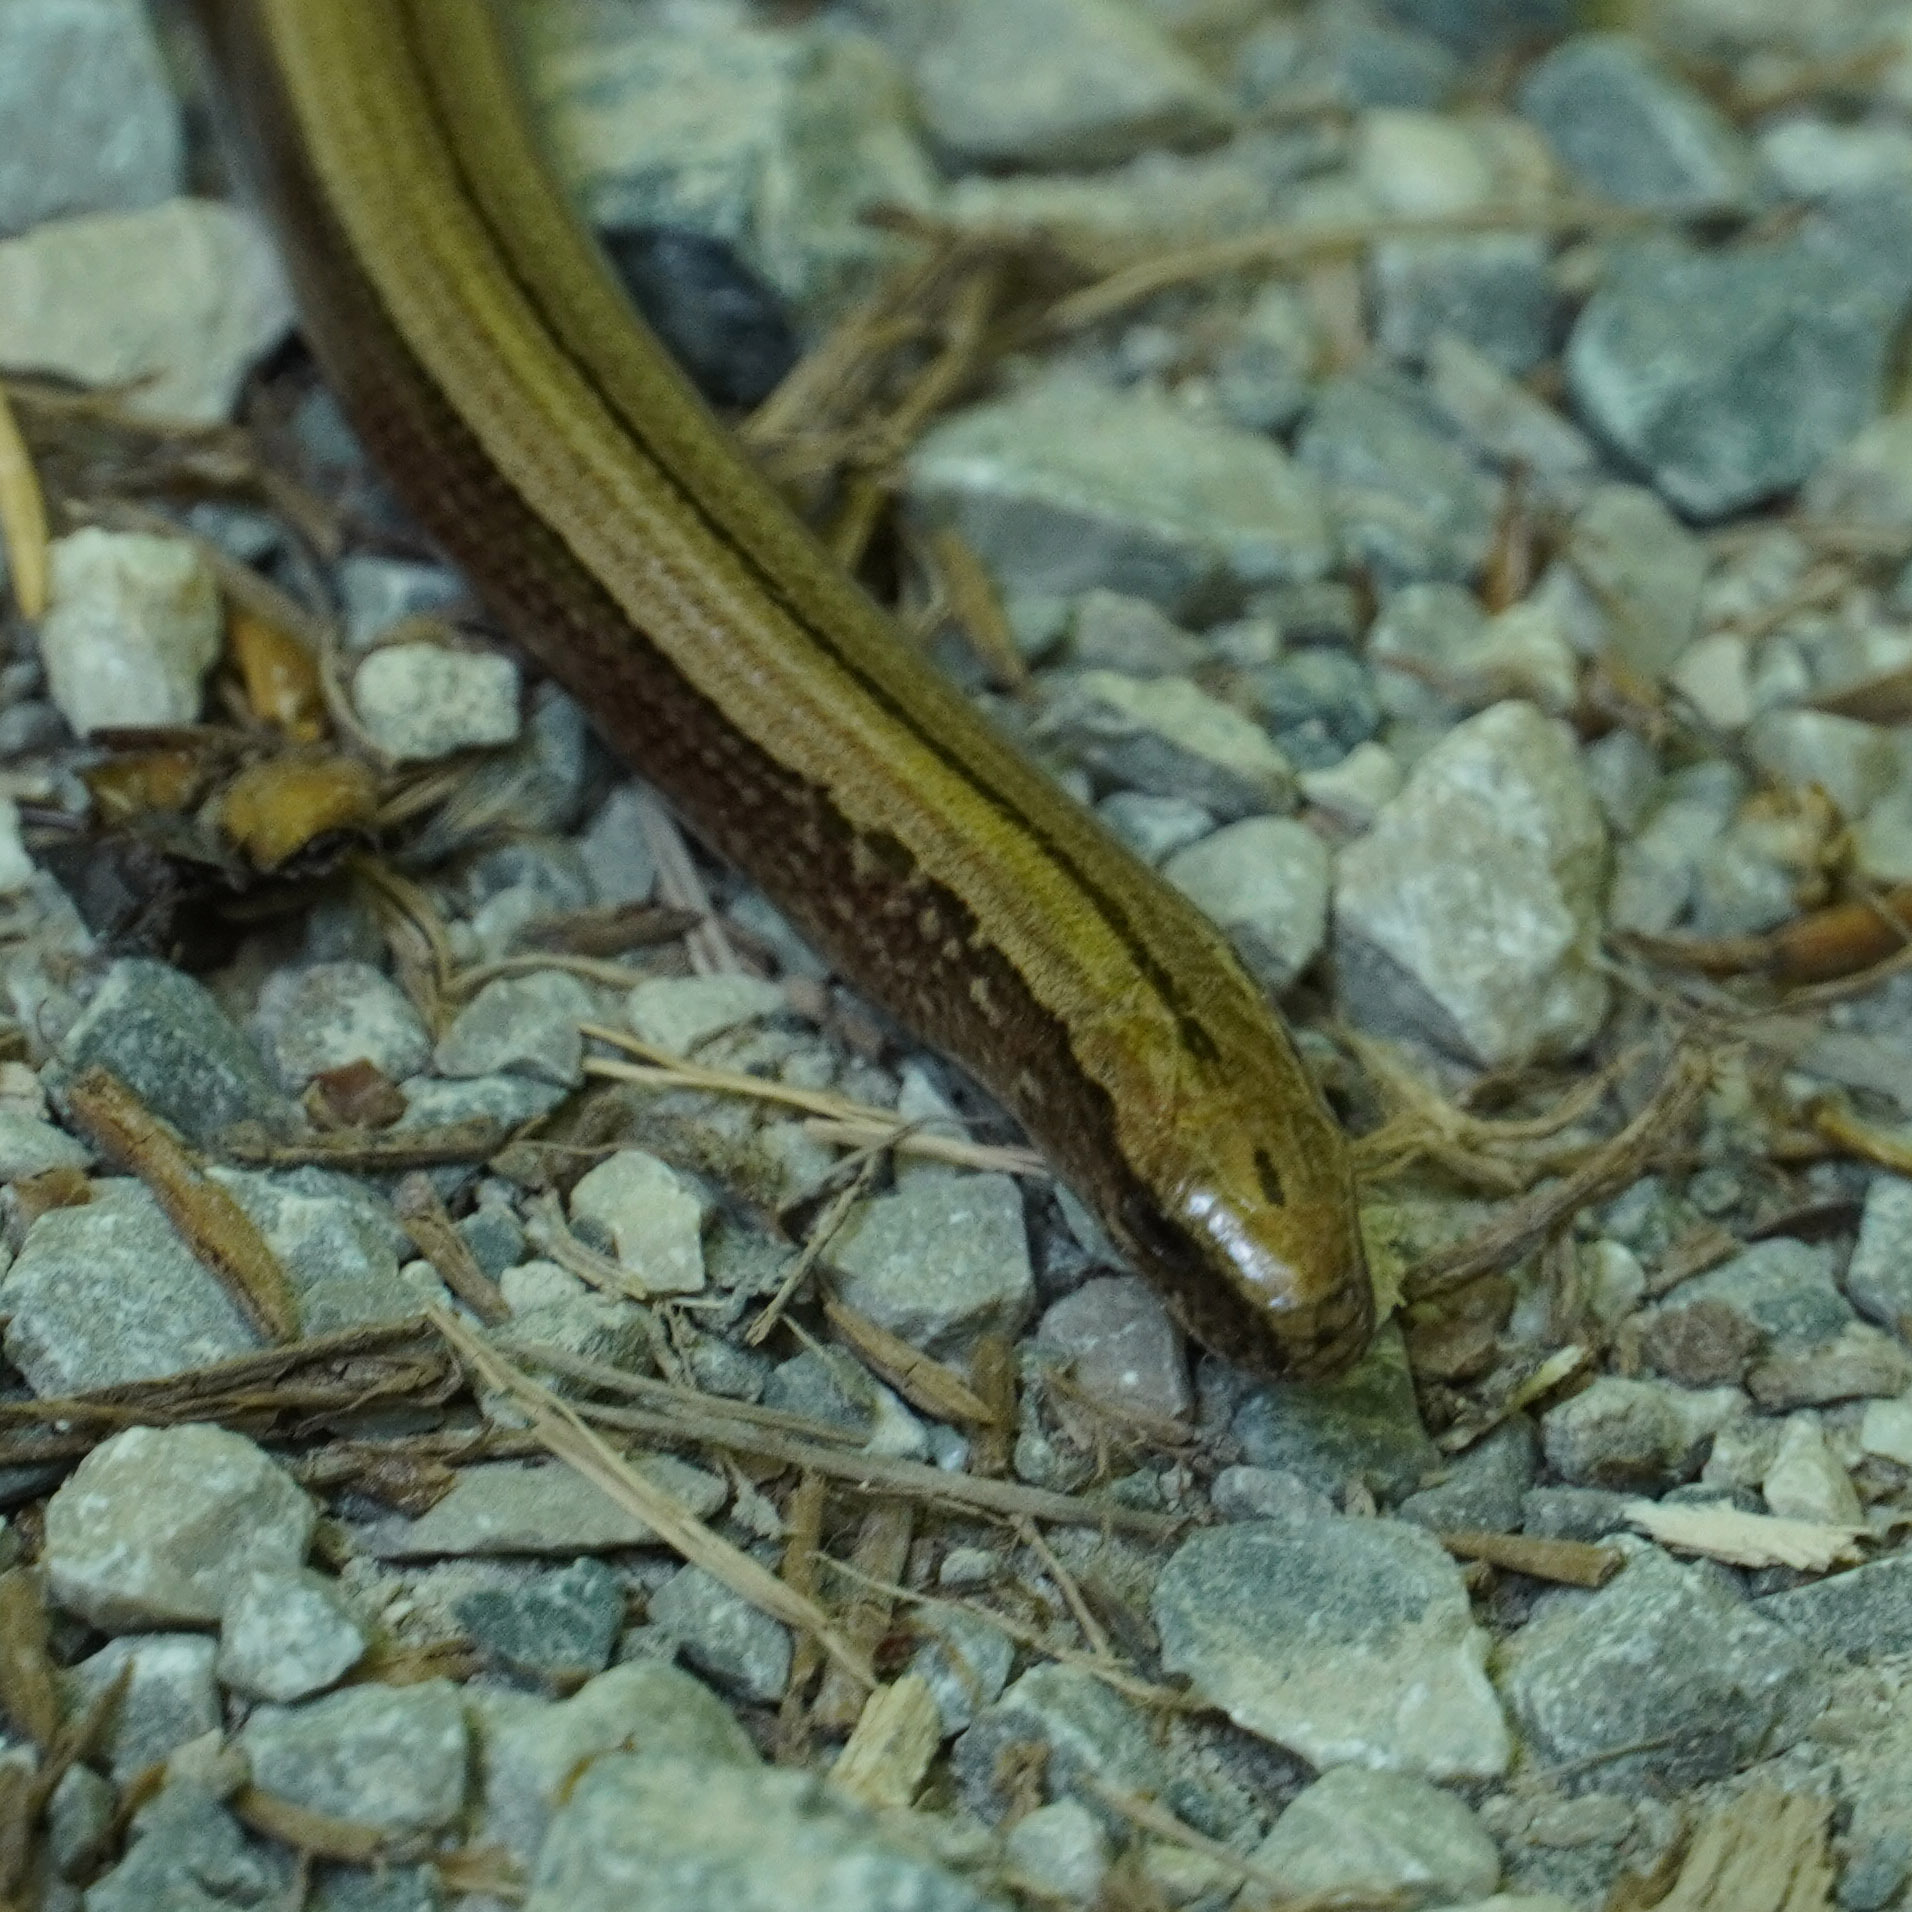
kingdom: Animalia
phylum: Chordata
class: Squamata
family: Anguidae
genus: Anguis
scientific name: Anguis fragilis
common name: Slow worm
